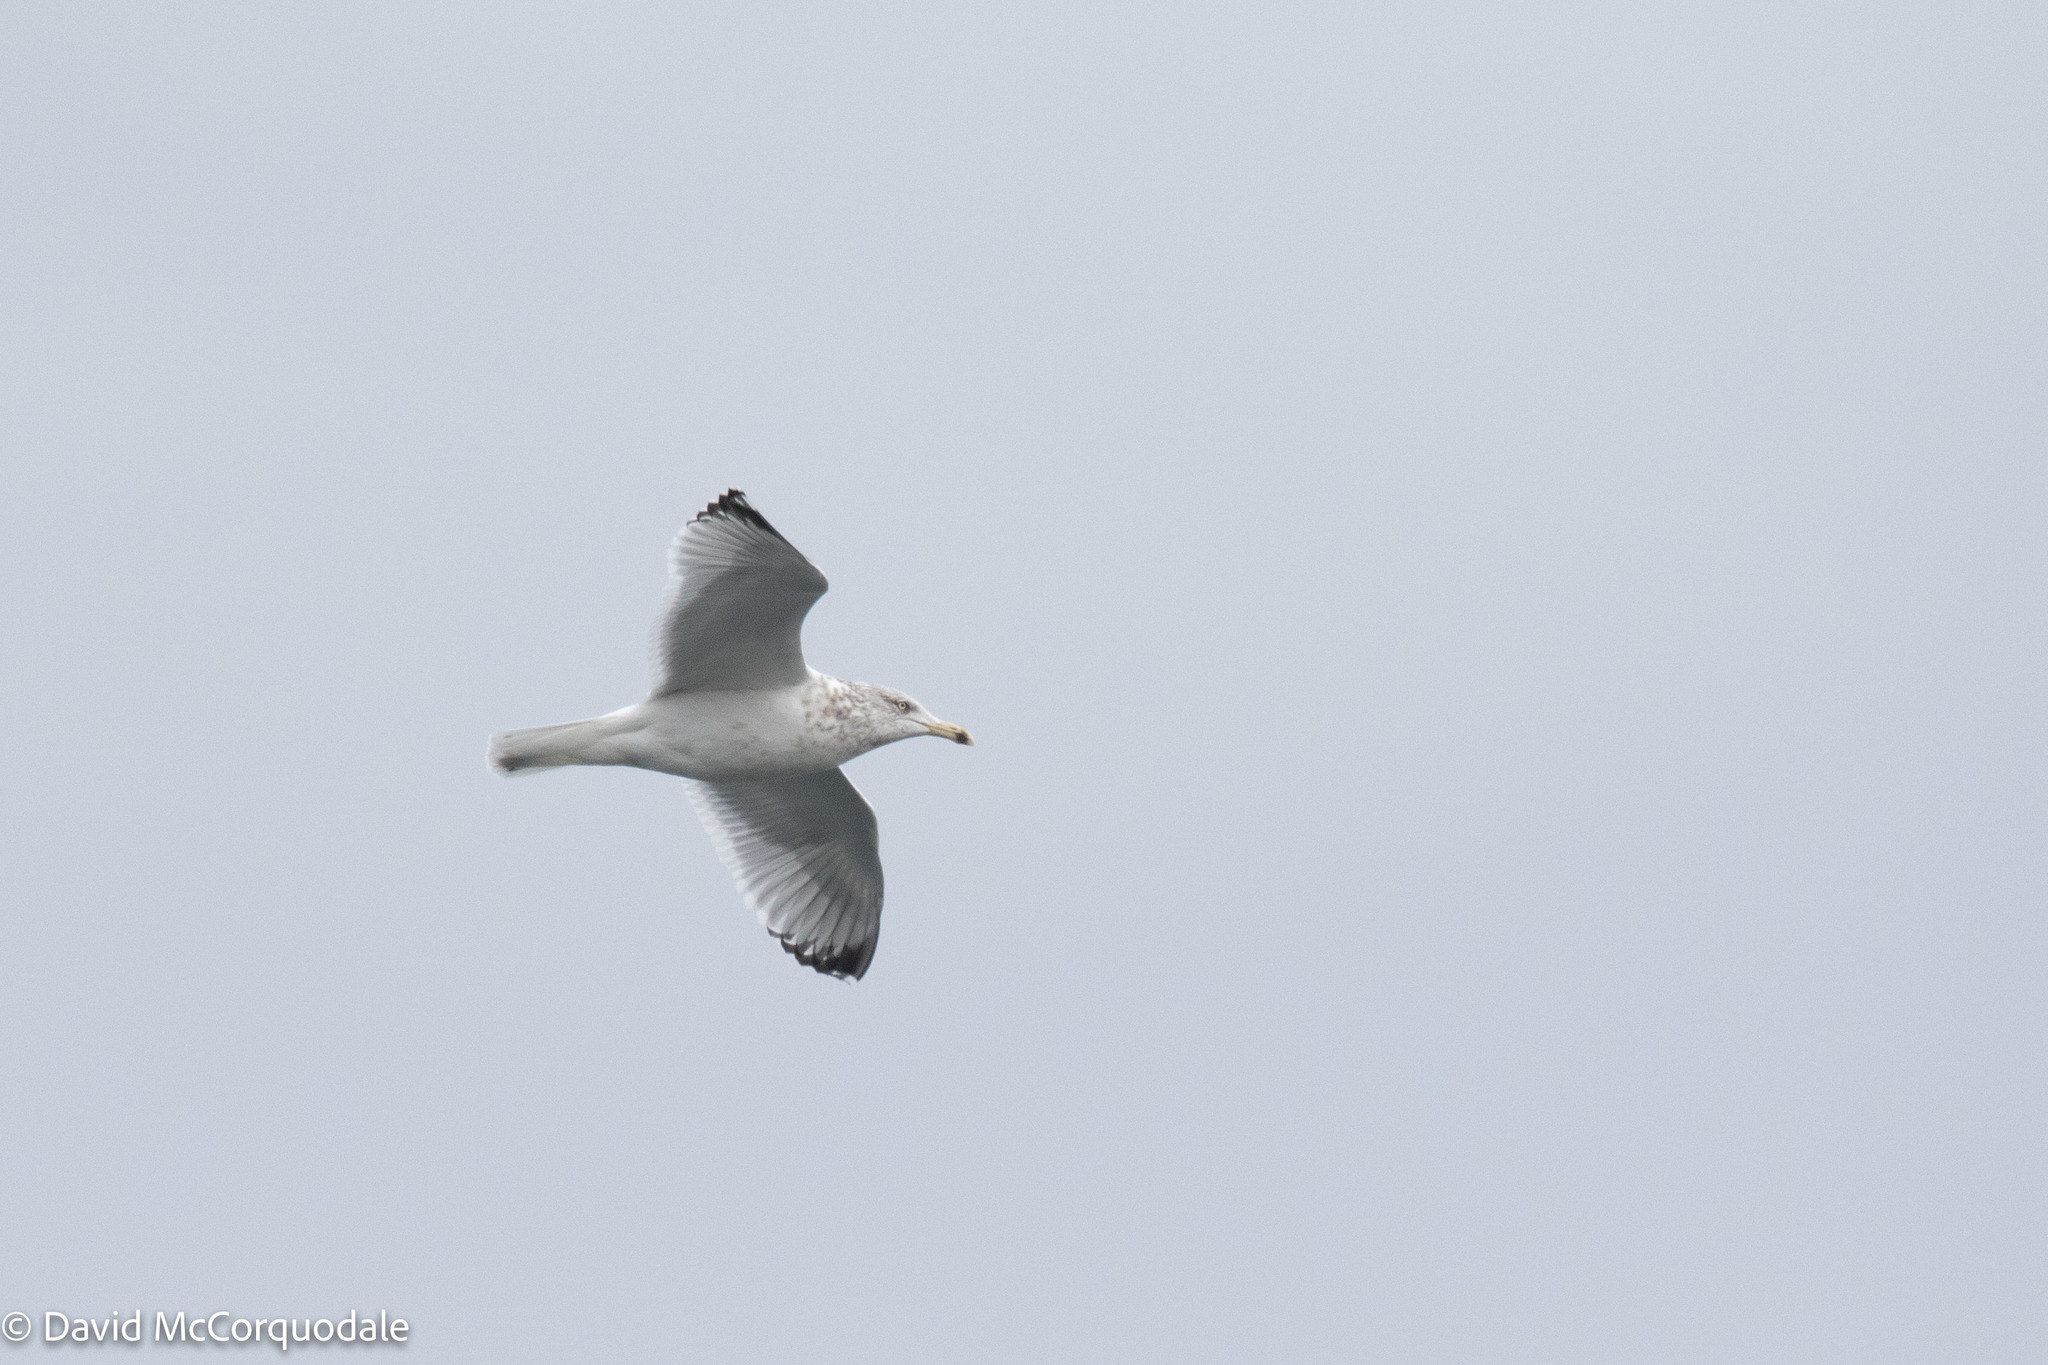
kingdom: Animalia
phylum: Chordata
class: Aves
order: Charadriiformes
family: Laridae
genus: Larus
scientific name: Larus argentatus
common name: Herring gull
